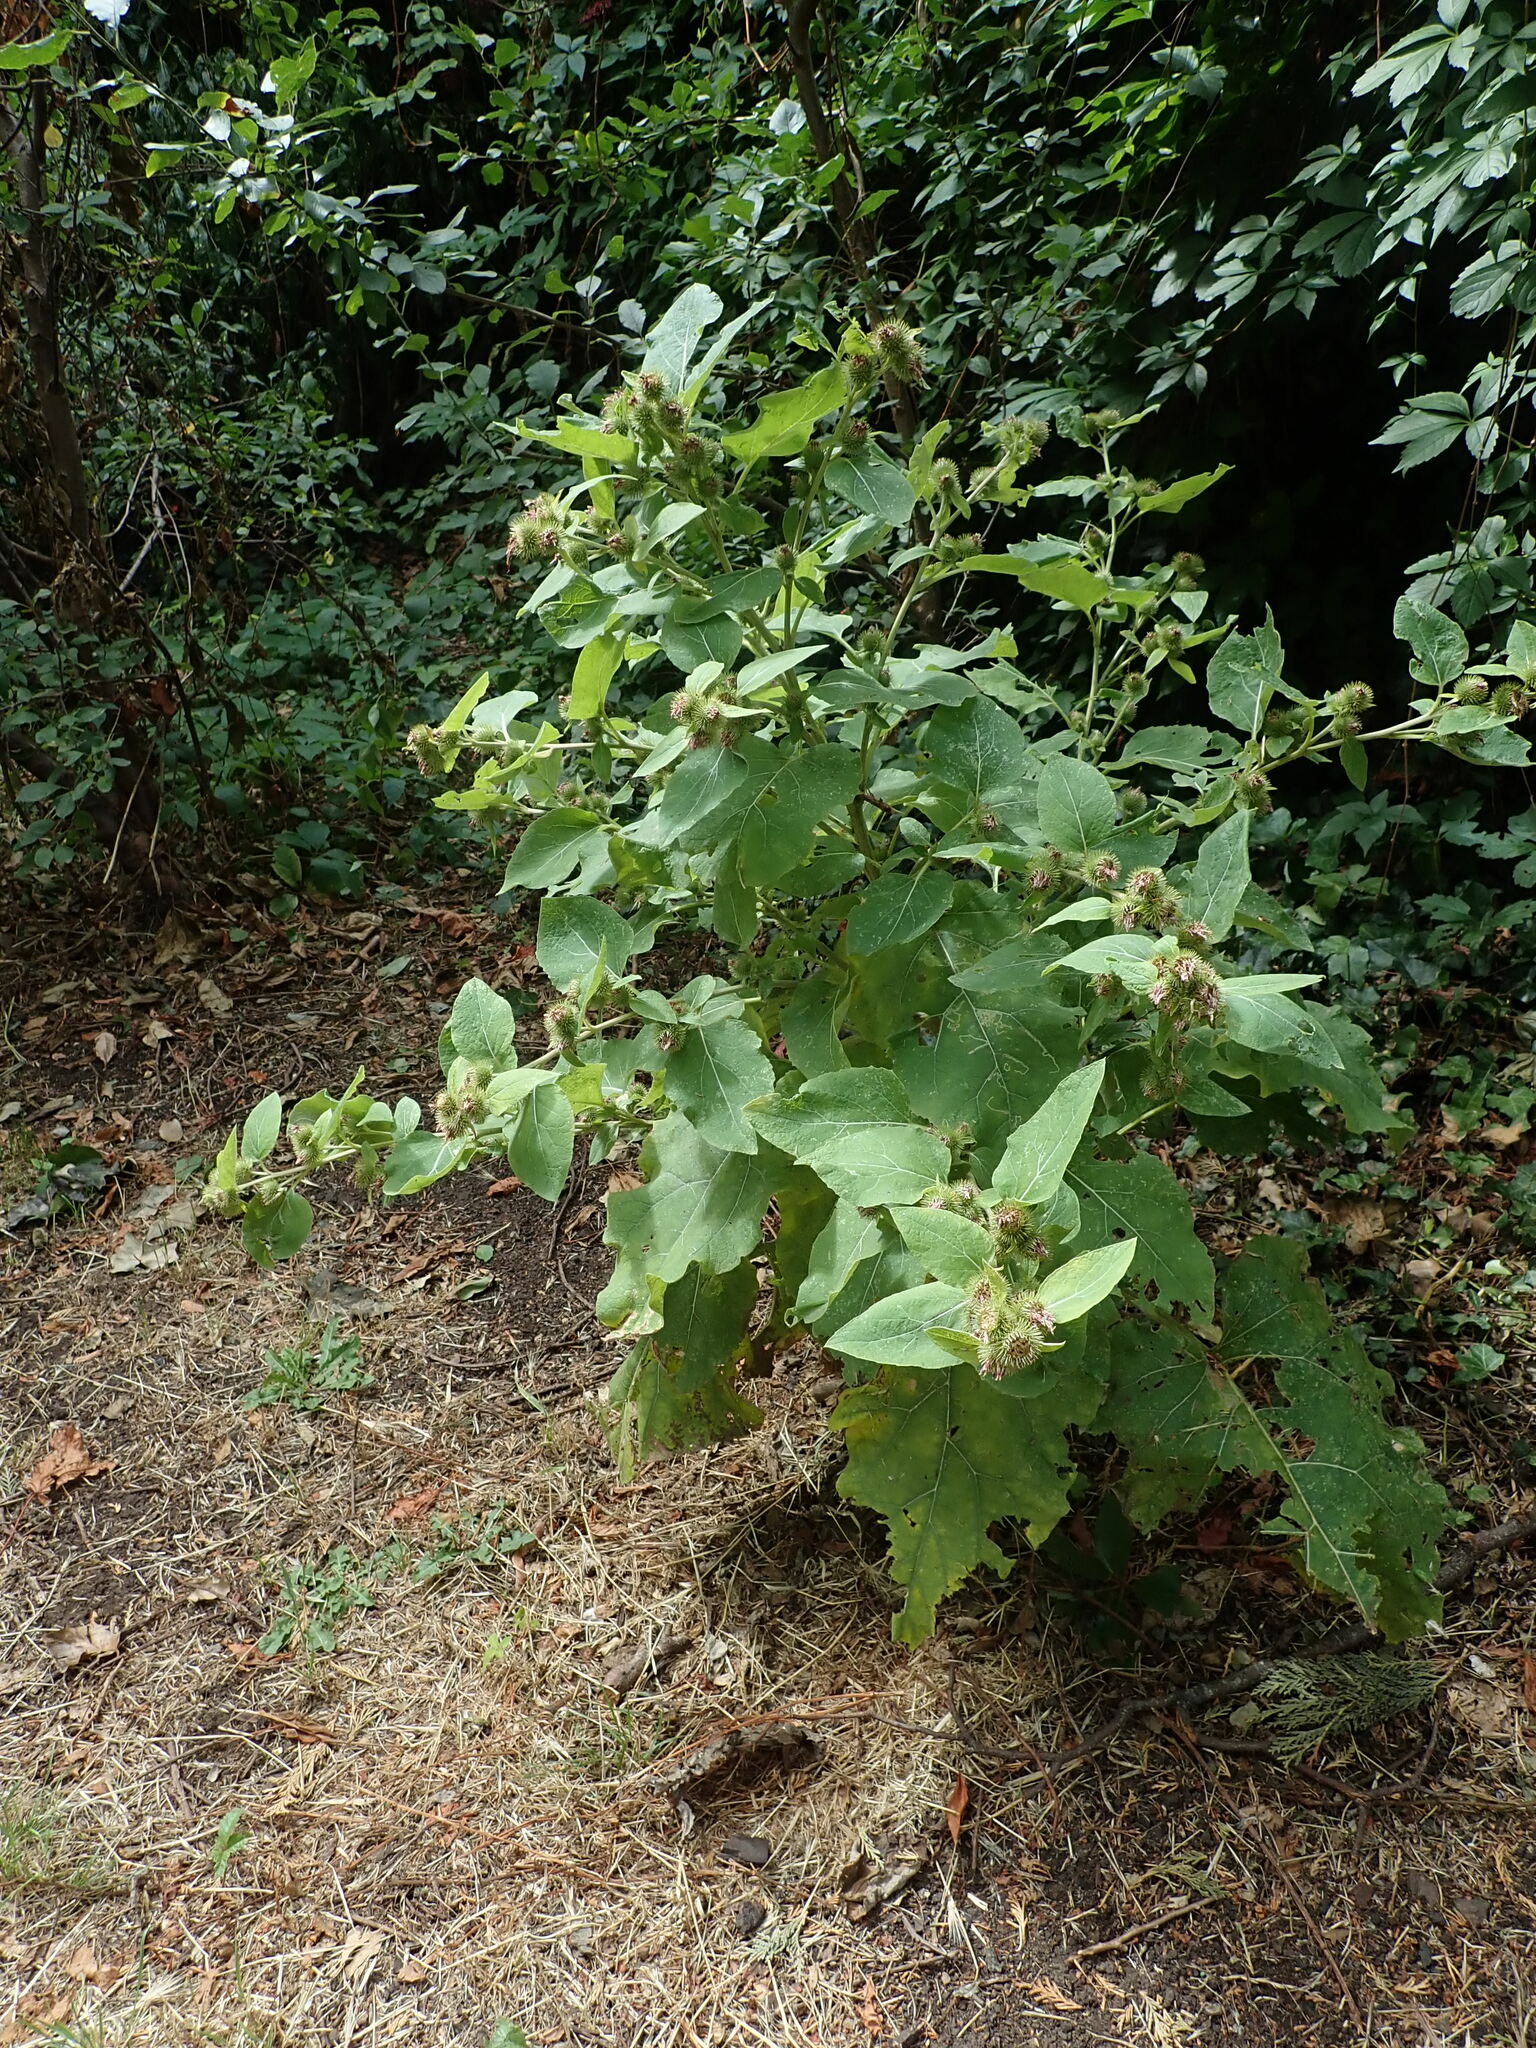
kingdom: Plantae
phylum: Tracheophyta
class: Magnoliopsida
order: Asterales
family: Asteraceae
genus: Arctium
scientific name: Arctium minus
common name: Lesser burdock
